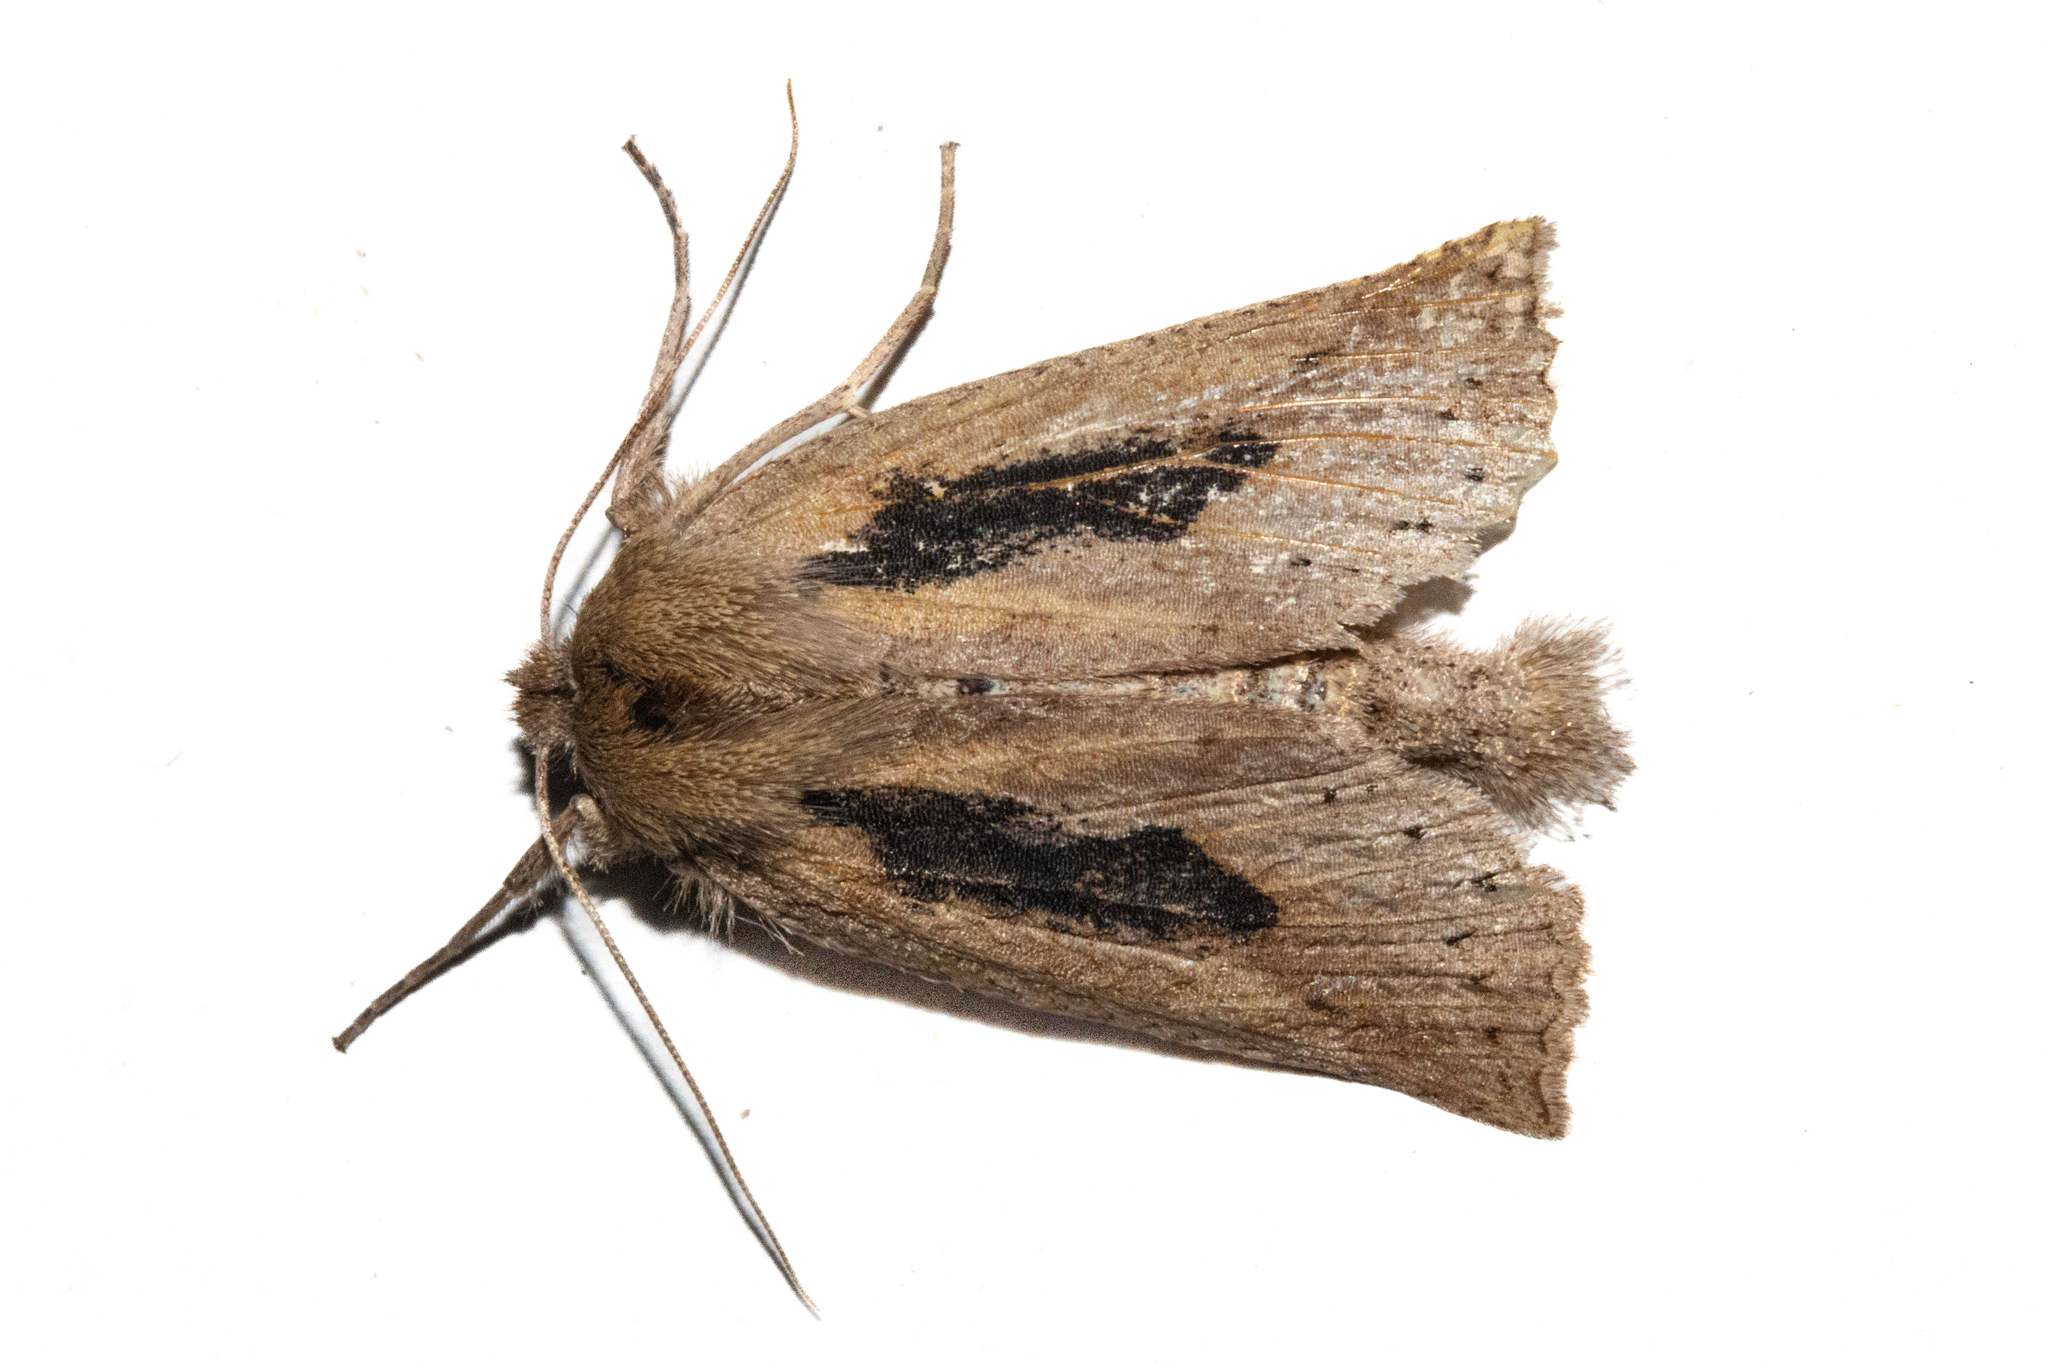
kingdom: Animalia
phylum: Arthropoda
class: Insecta
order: Lepidoptera
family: Geometridae
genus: Declana
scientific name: Declana leptomera
